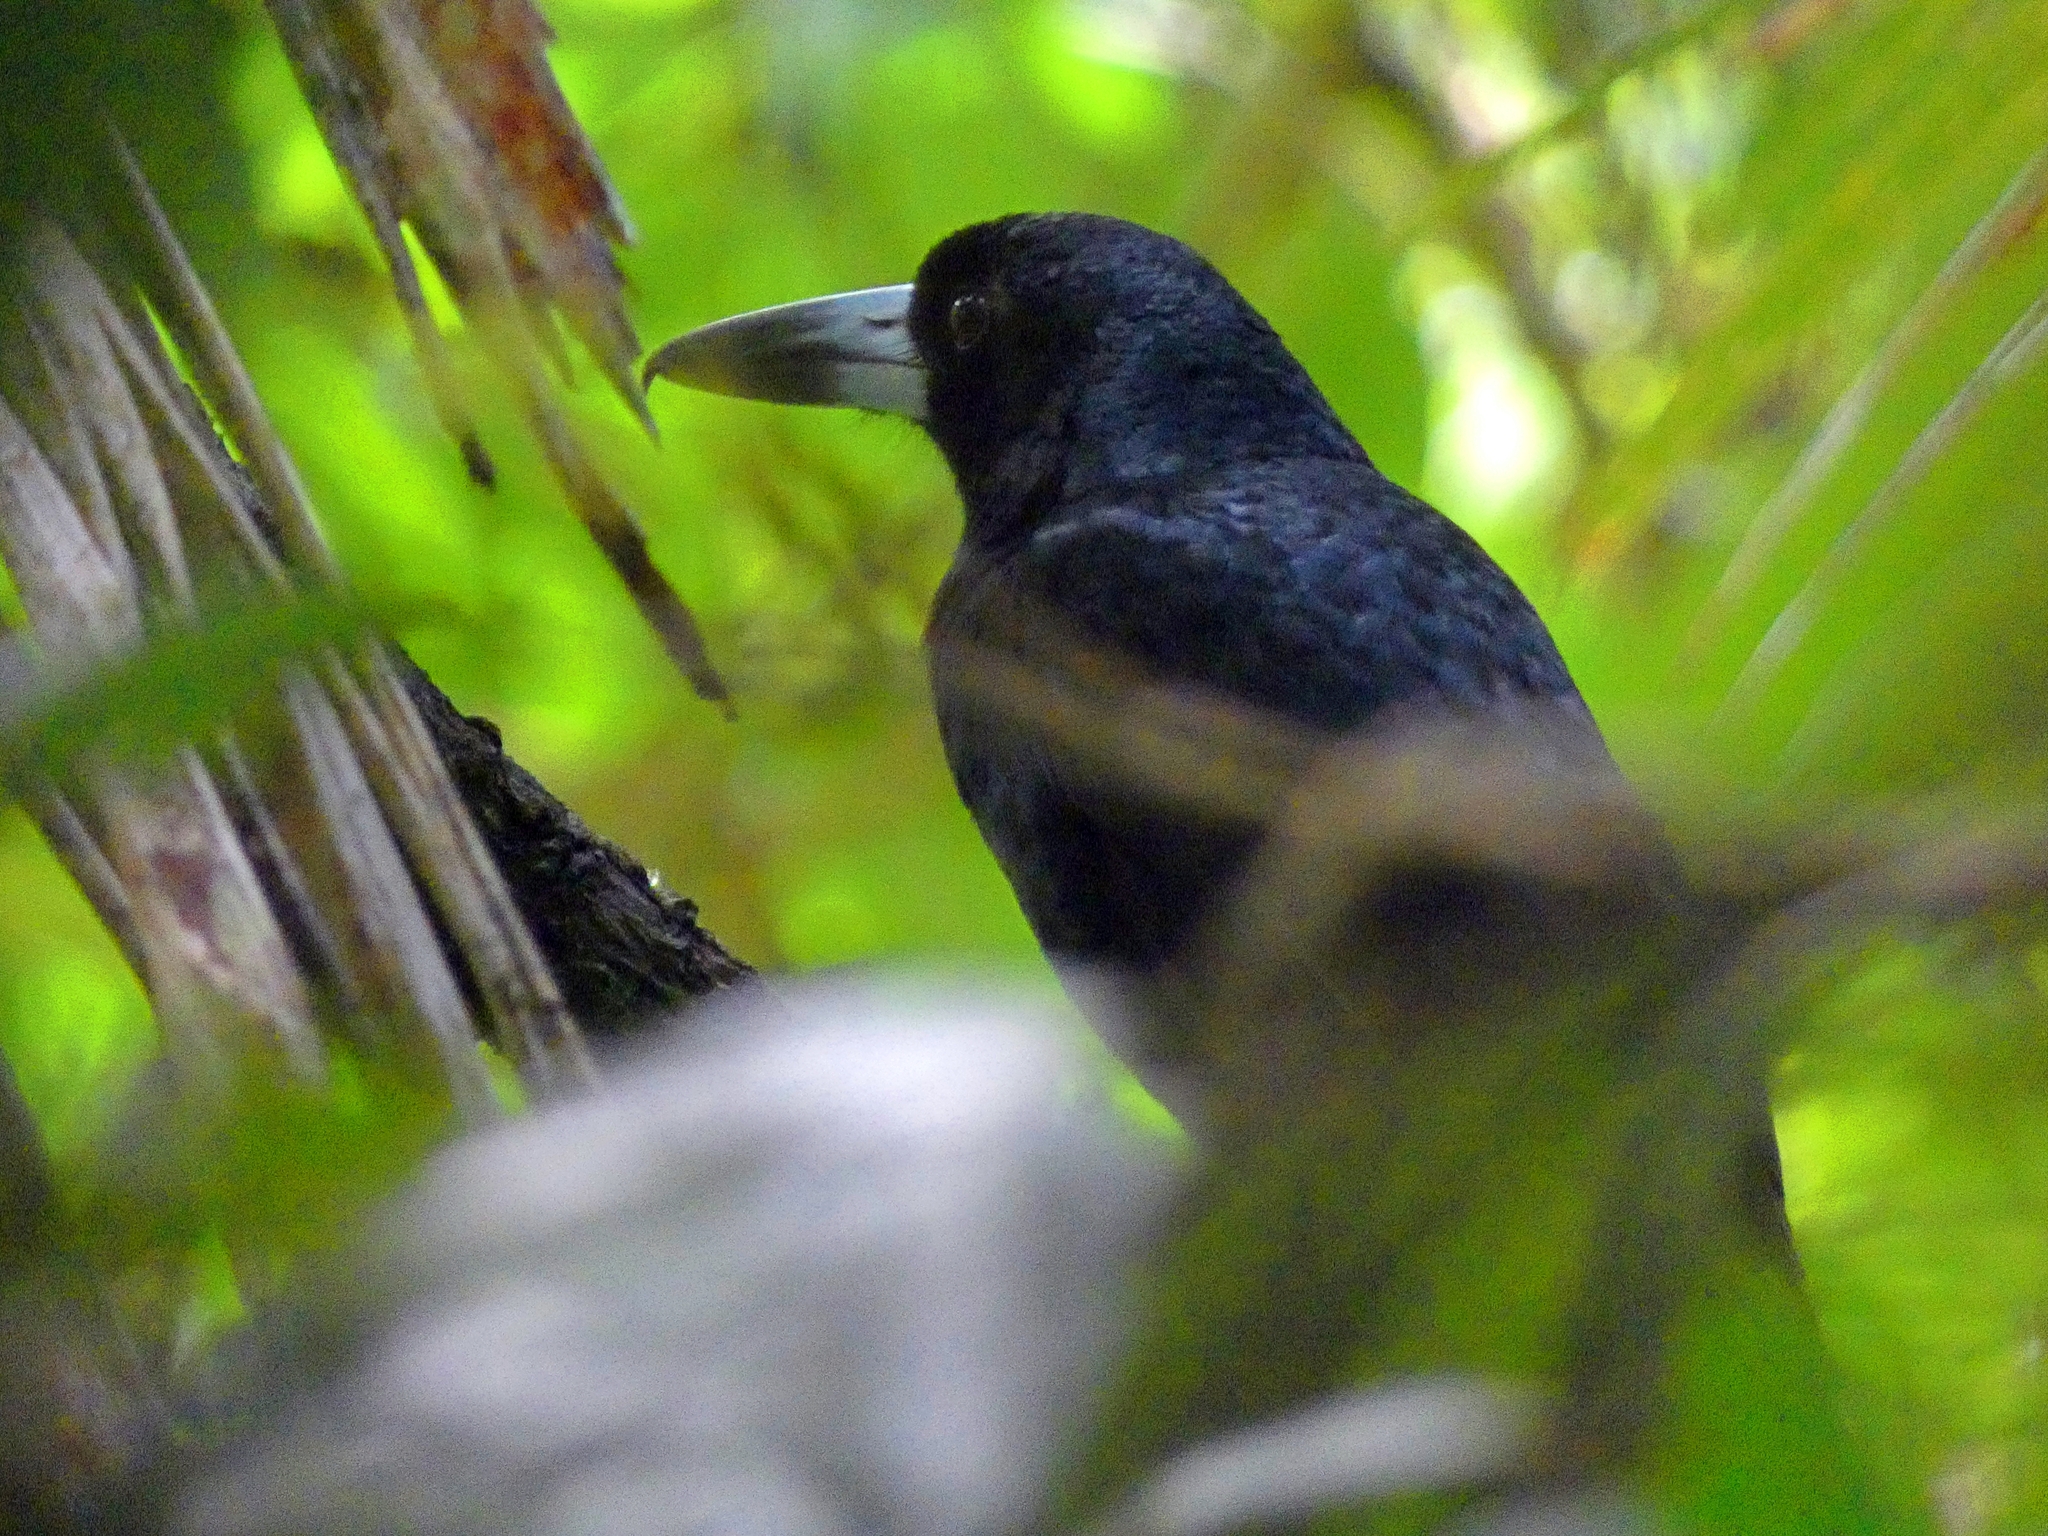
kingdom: Animalia
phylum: Chordata
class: Aves
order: Passeriformes
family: Artamidae
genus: Melloria
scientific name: Melloria quoyi
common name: Black butcherbird
